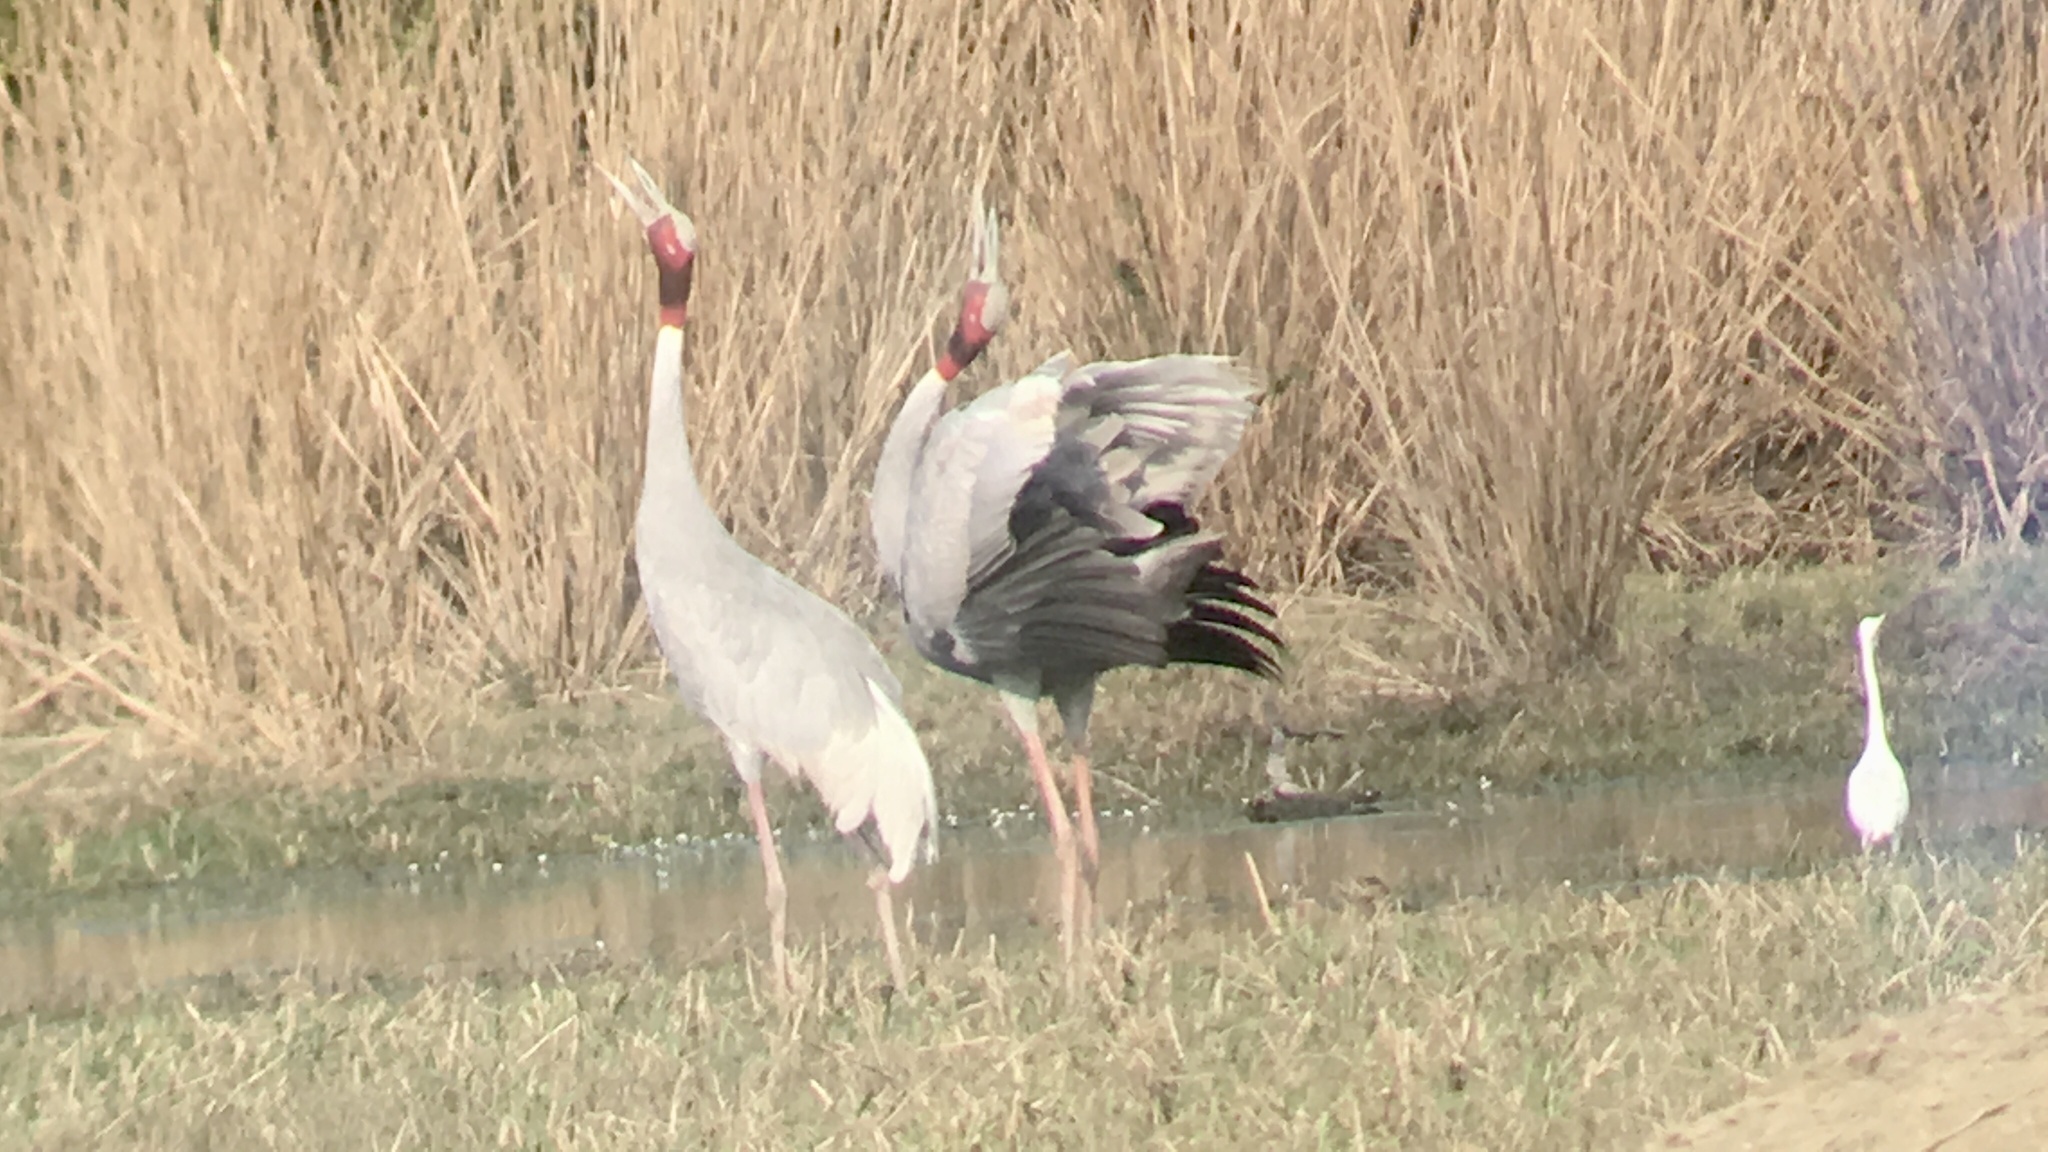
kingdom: Animalia
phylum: Chordata
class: Aves
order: Gruiformes
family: Gruidae
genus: Grus
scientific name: Grus antigone
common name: Sarus crane
